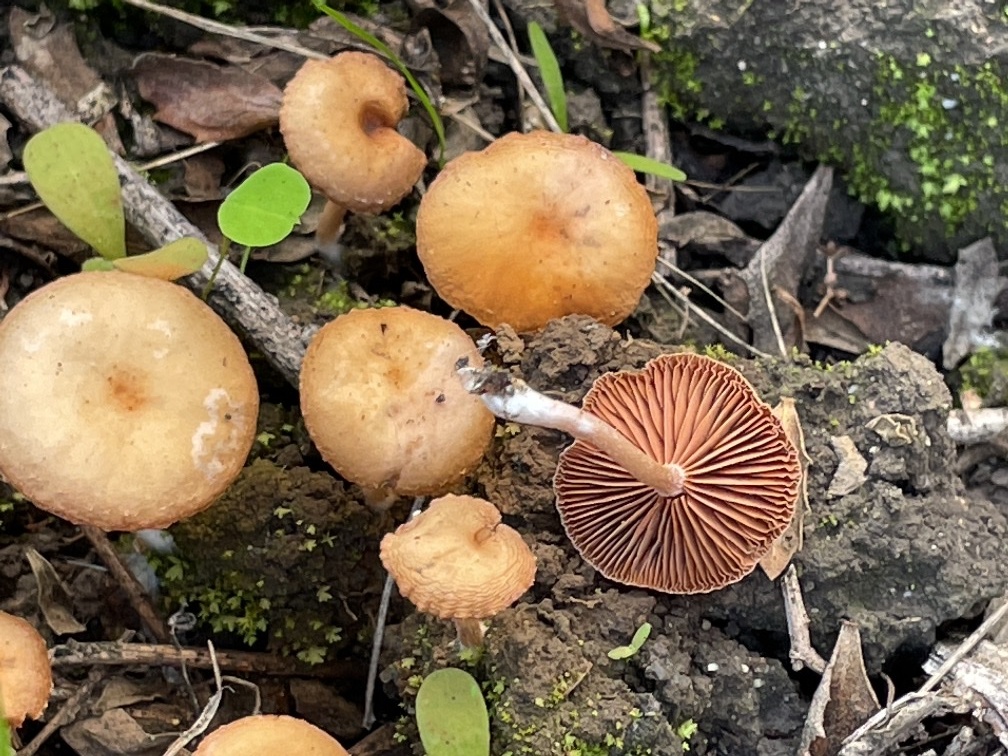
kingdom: Fungi
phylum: Basidiomycota
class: Agaricomycetes
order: Agaricales
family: Tubariaceae
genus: Tubaria
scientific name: Tubaria furfuracea
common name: Scurfy twiglet
